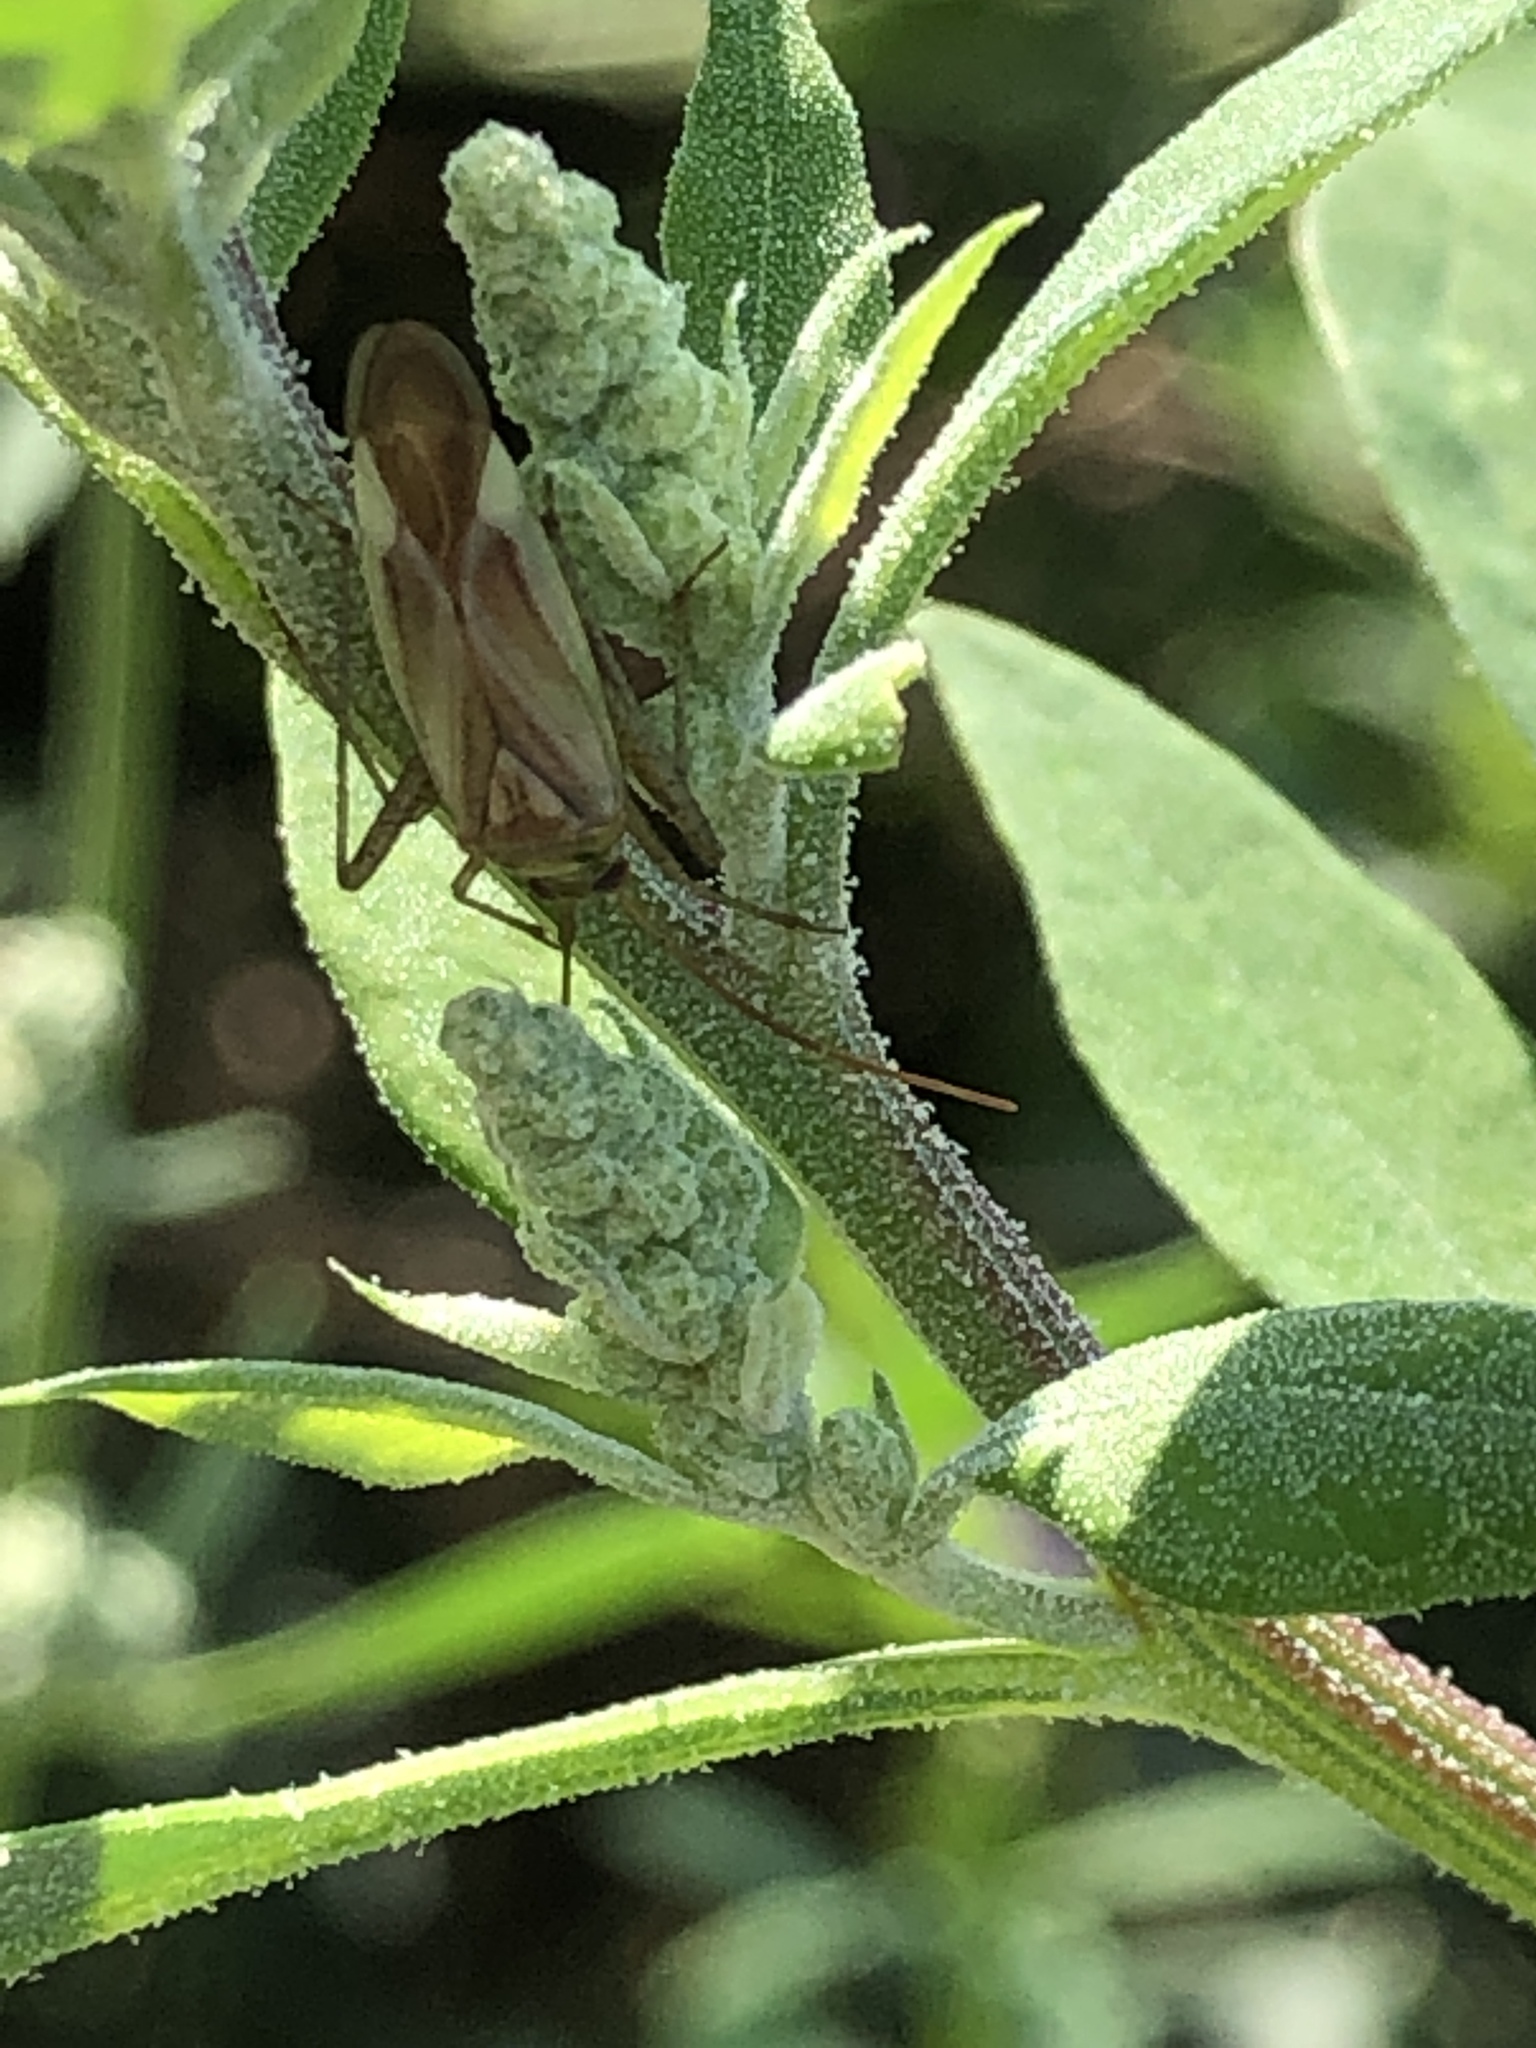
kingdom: Animalia
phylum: Arthropoda
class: Insecta
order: Hemiptera
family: Miridae
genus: Adelphocoris
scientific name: Adelphocoris lineolatus
